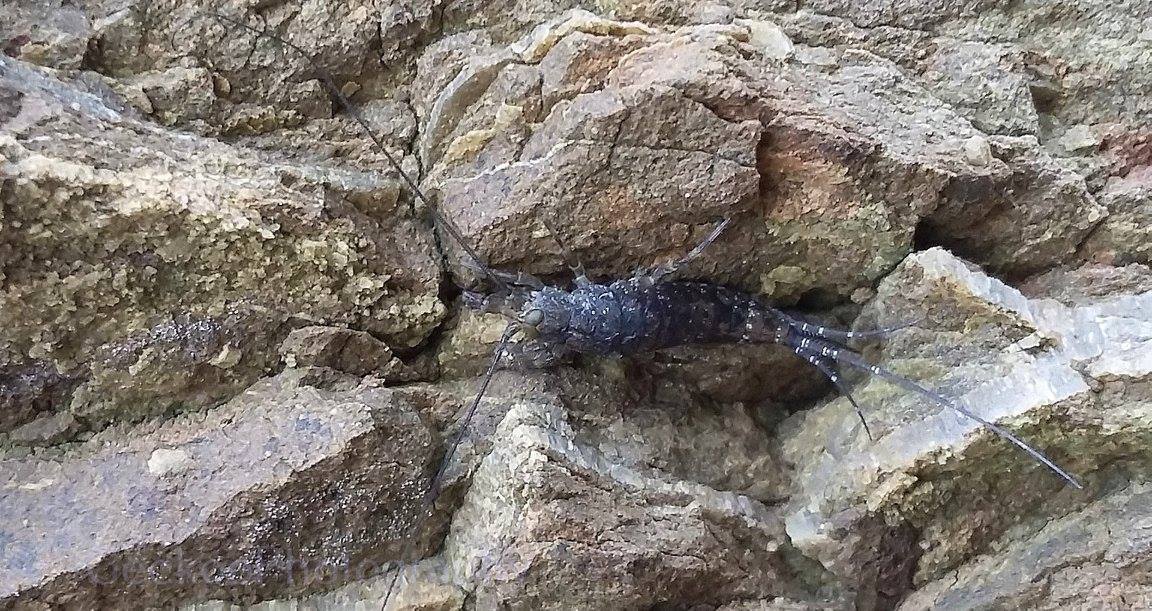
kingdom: Animalia
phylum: Arthropoda
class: Insecta
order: Archaeognatha
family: Machilidae
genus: Petrobius
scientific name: Petrobius brevistylis
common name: Jumping bristletail
